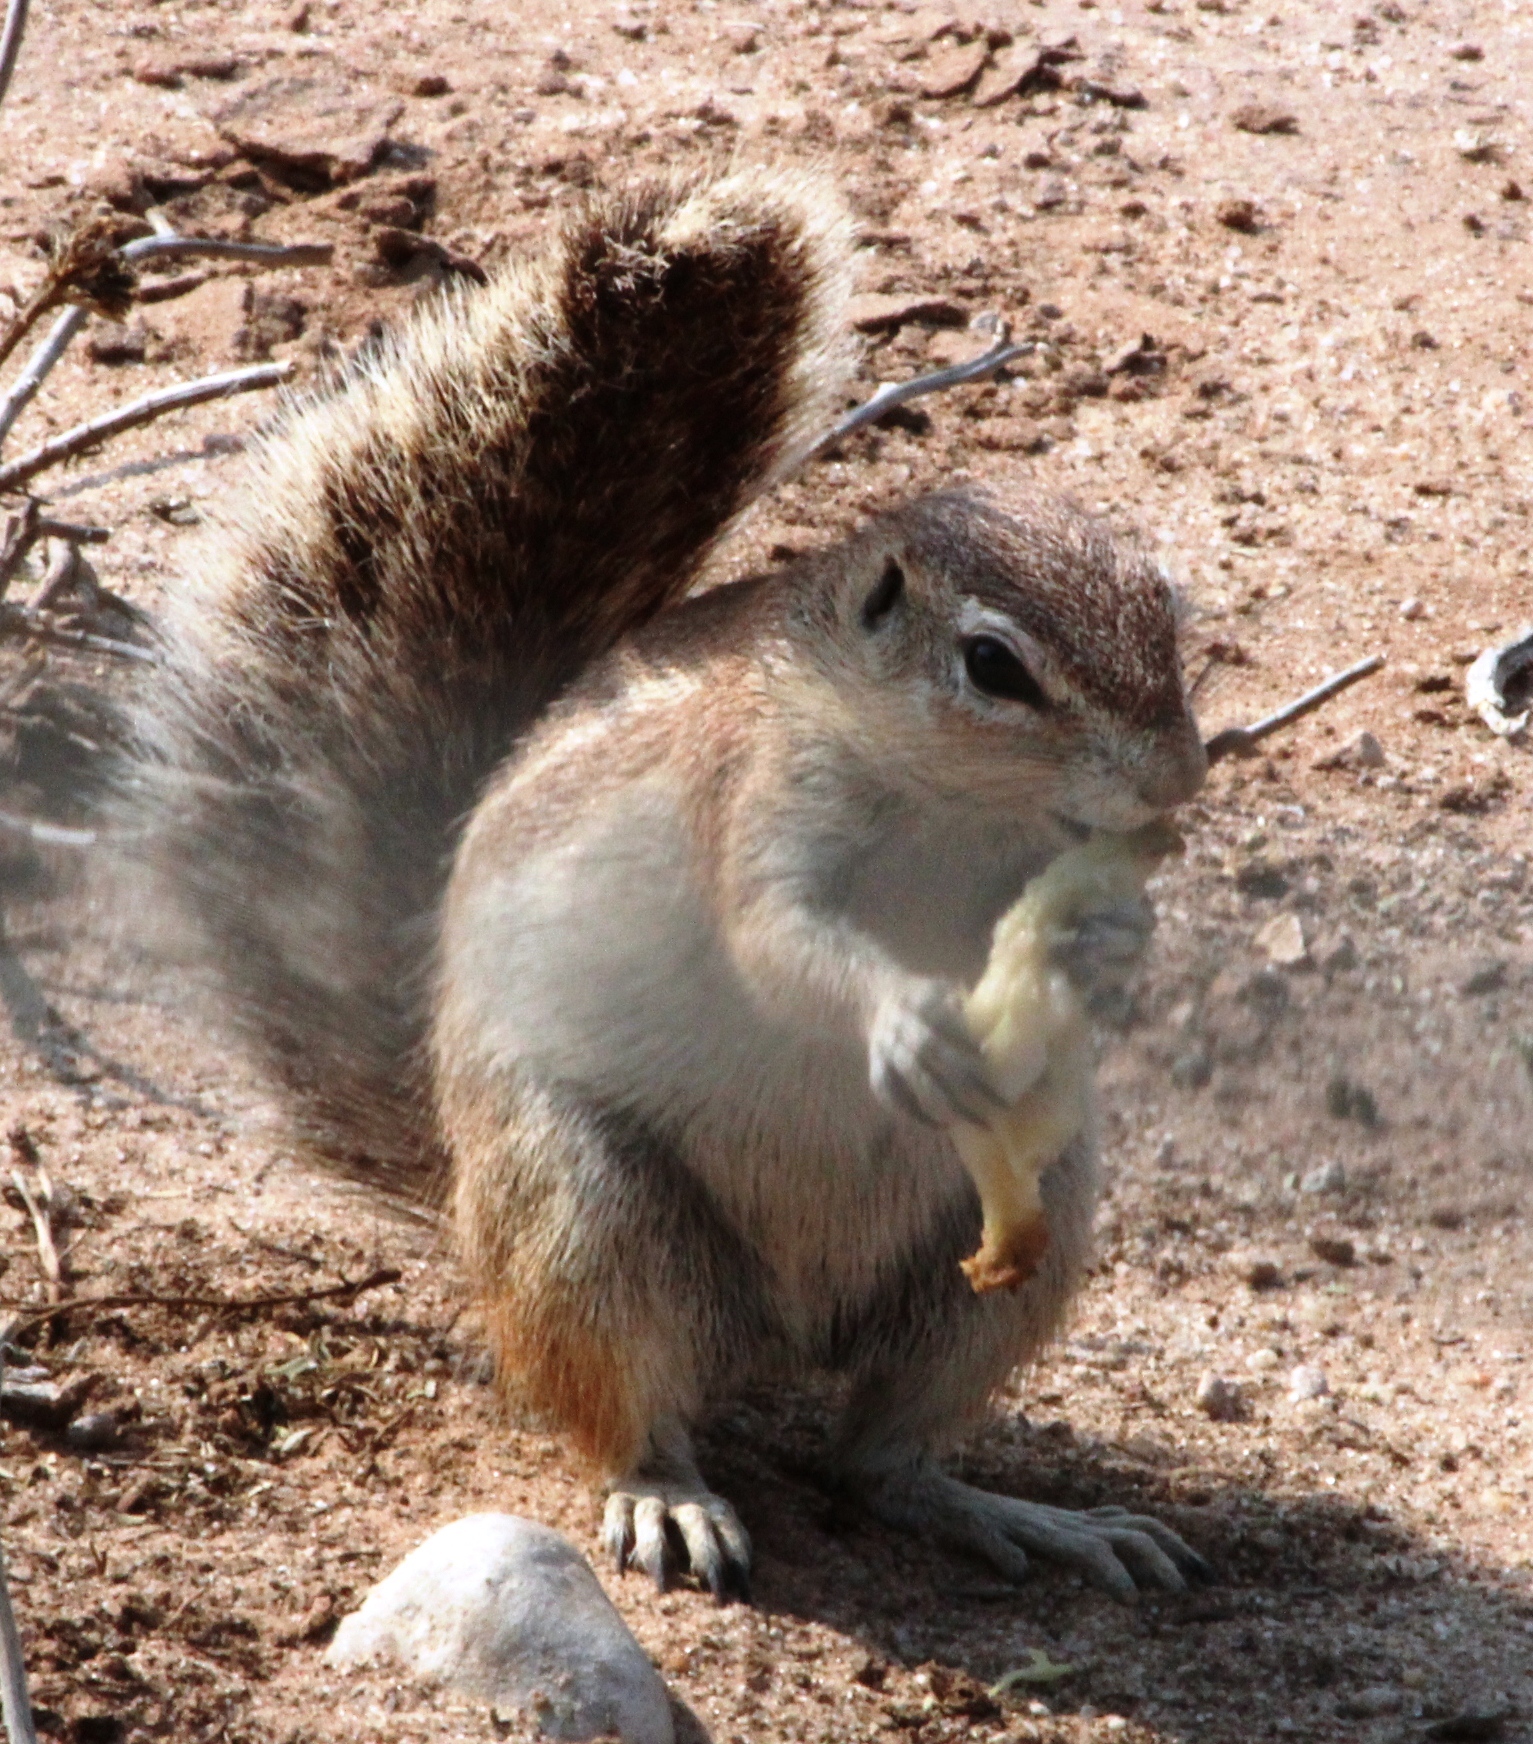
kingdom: Animalia
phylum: Chordata
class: Mammalia
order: Rodentia
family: Sciuridae
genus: Xerus
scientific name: Xerus inauris
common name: South african ground squirrel
